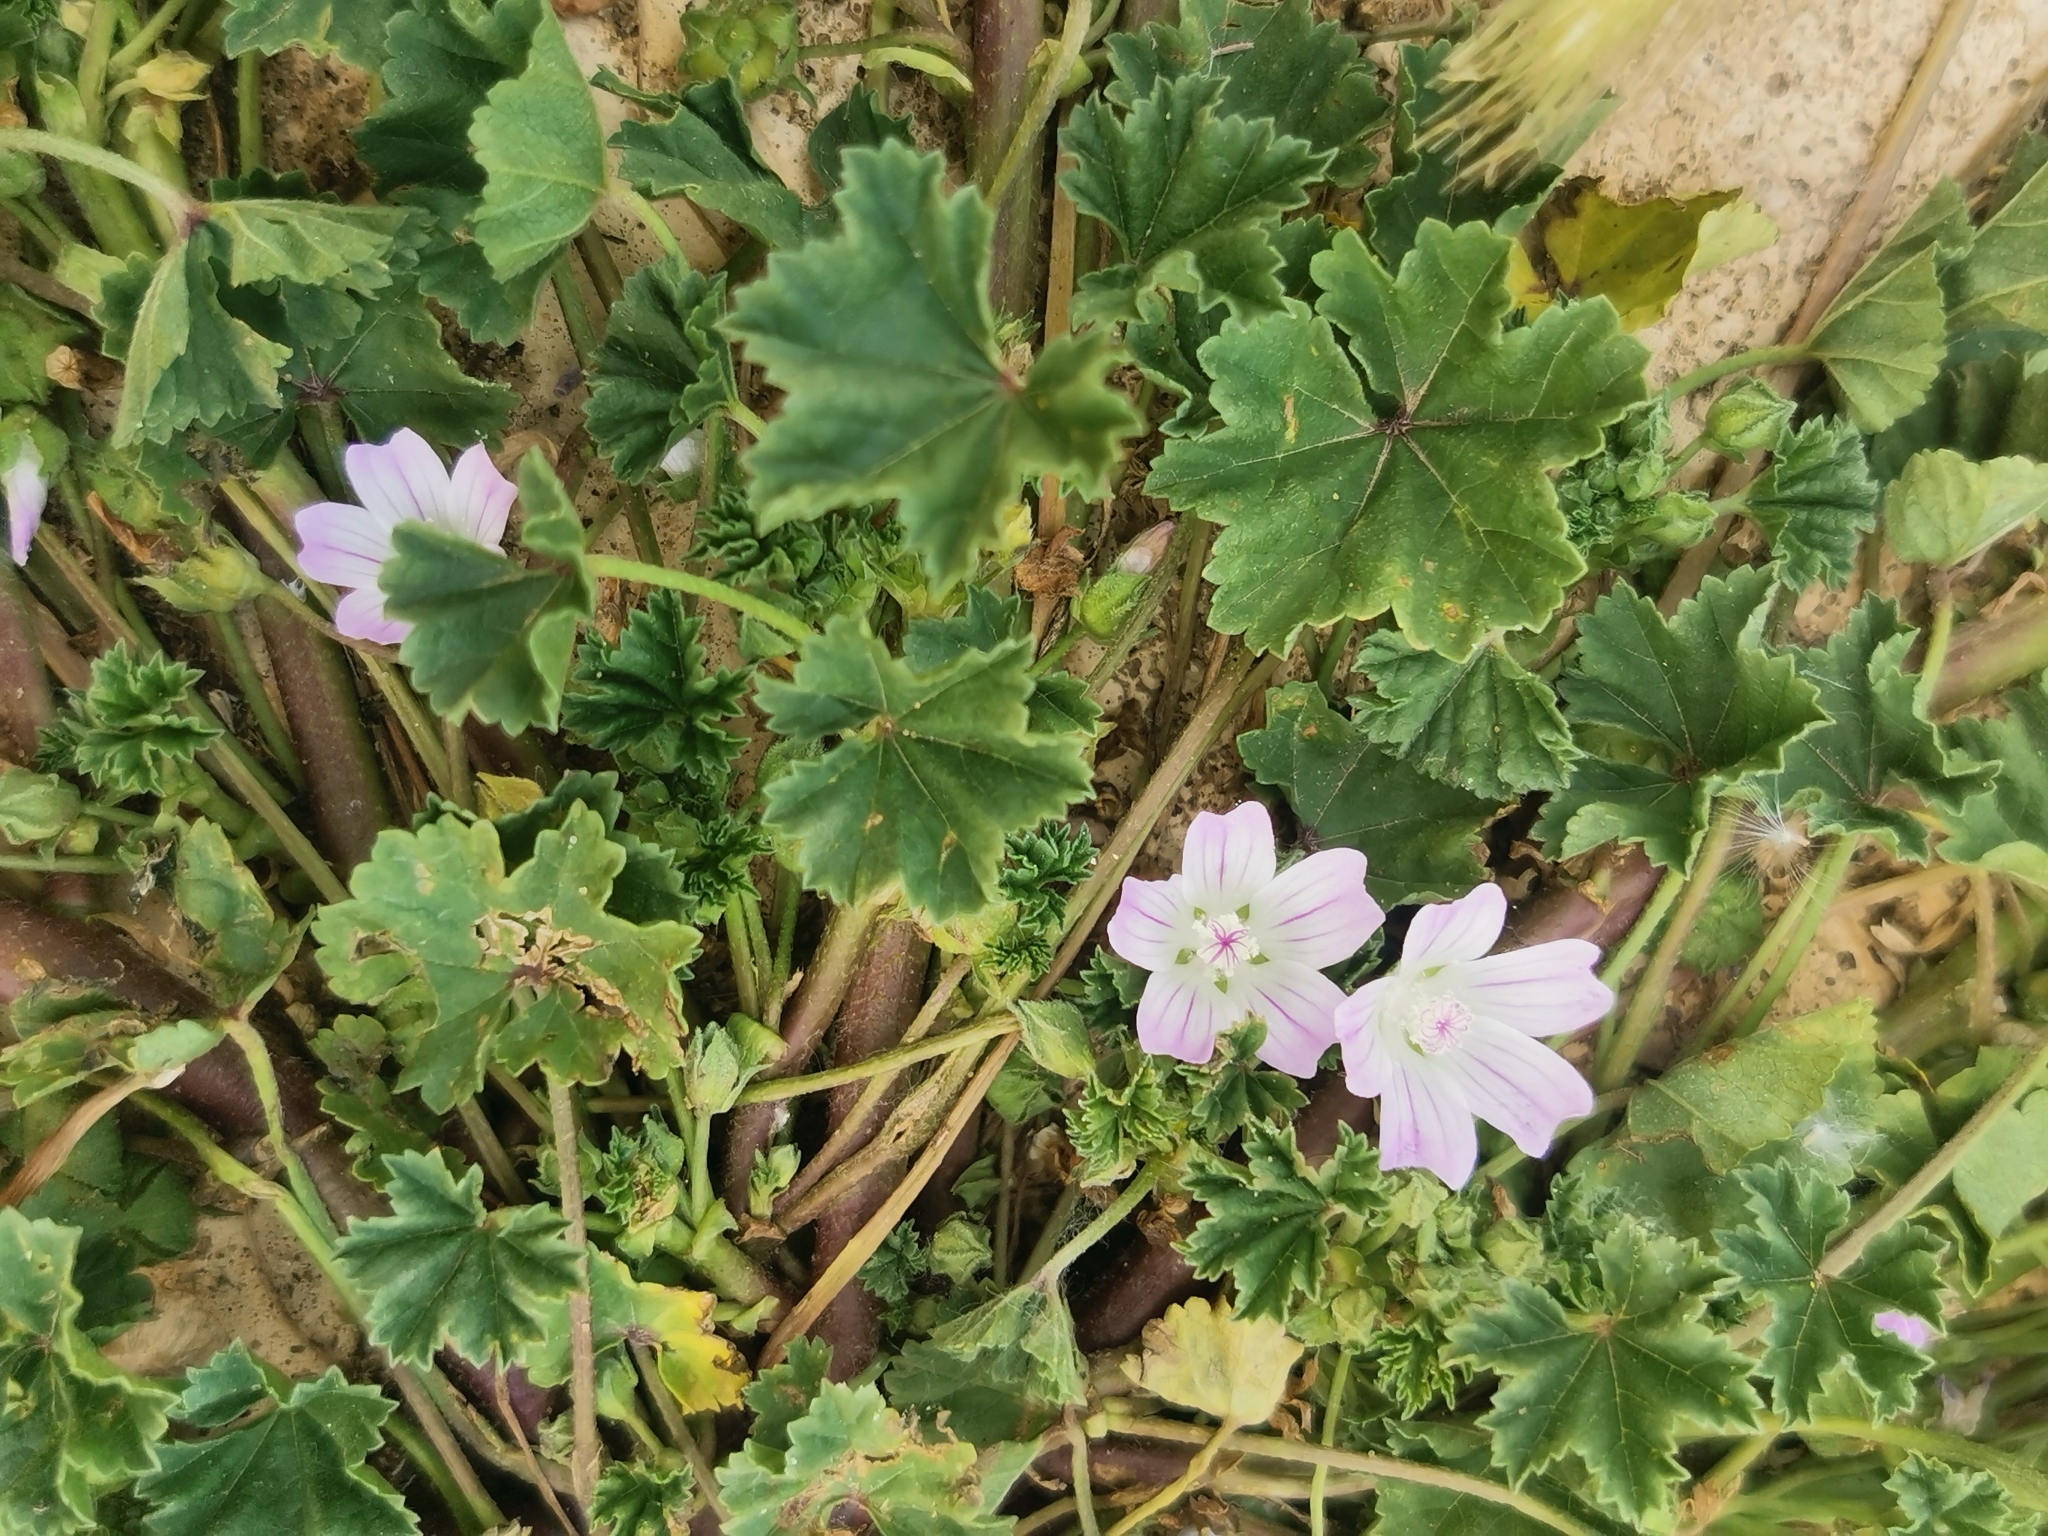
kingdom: Plantae
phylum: Tracheophyta
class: Magnoliopsida
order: Malvales
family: Malvaceae
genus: Malva
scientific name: Malva neglecta
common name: Common mallow
